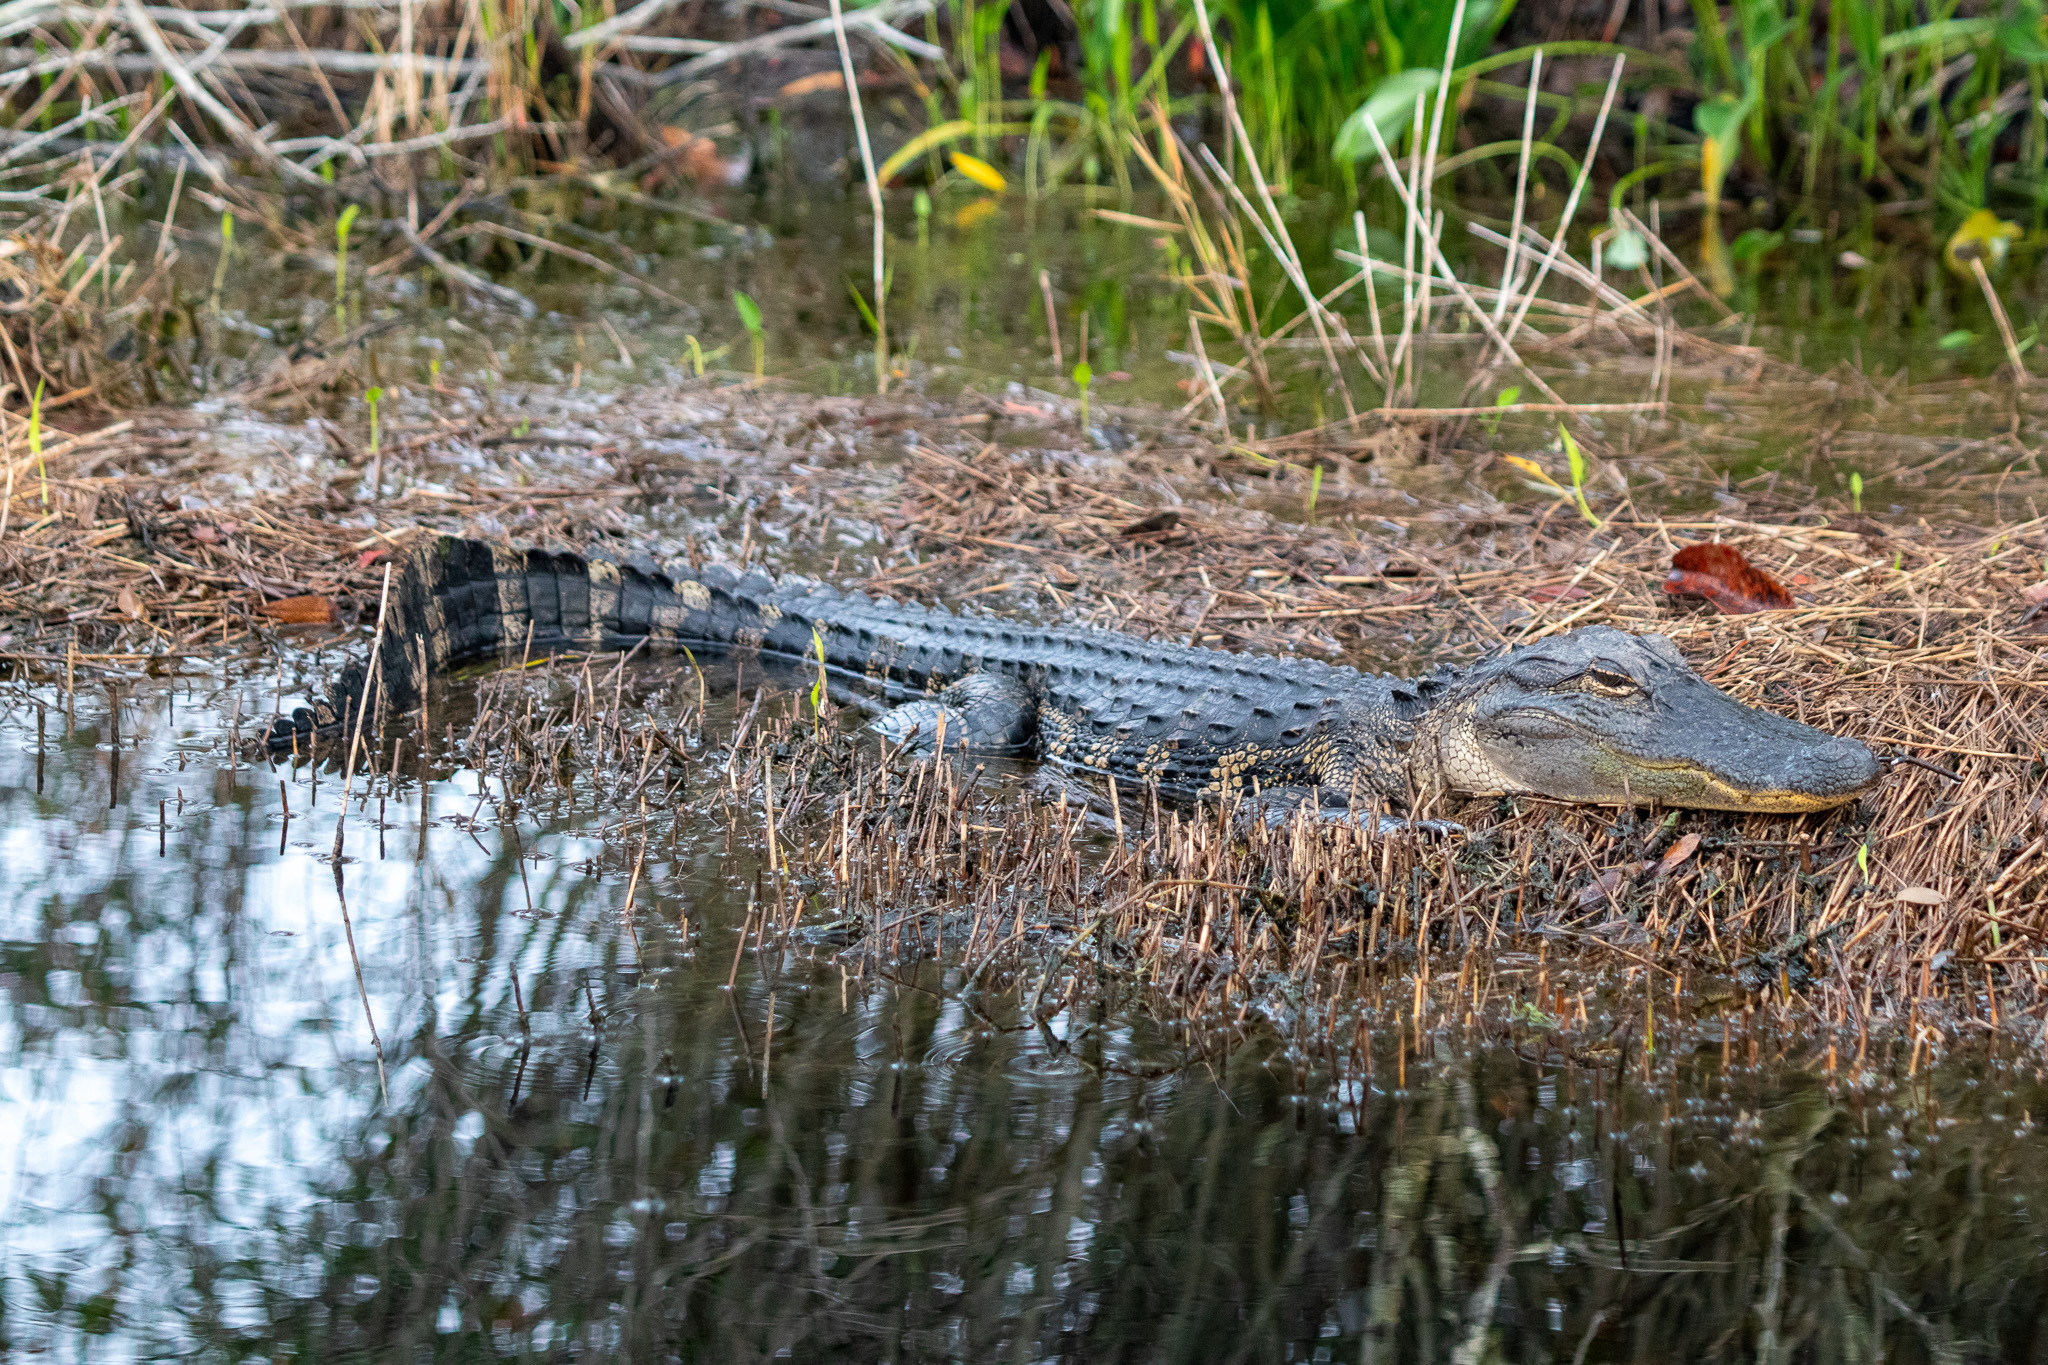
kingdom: Animalia
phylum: Chordata
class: Crocodylia
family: Alligatoridae
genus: Alligator
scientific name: Alligator mississippiensis
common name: American alligator
